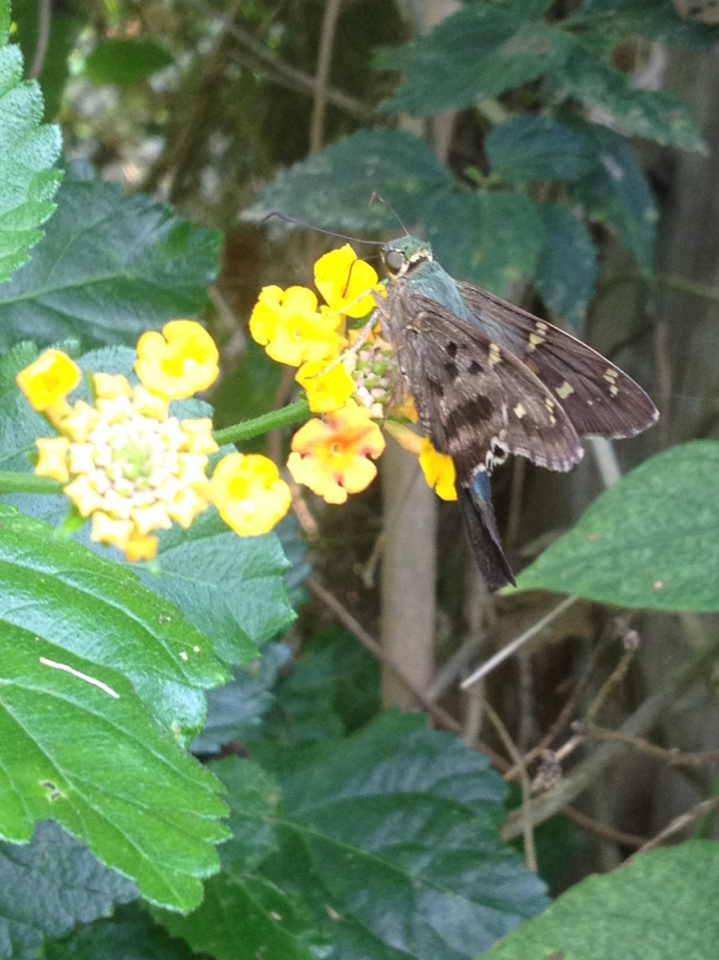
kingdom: Animalia
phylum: Arthropoda
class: Insecta
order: Lepidoptera
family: Hesperiidae
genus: Urbanus
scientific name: Urbanus proteus
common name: Long-tailed skipper
